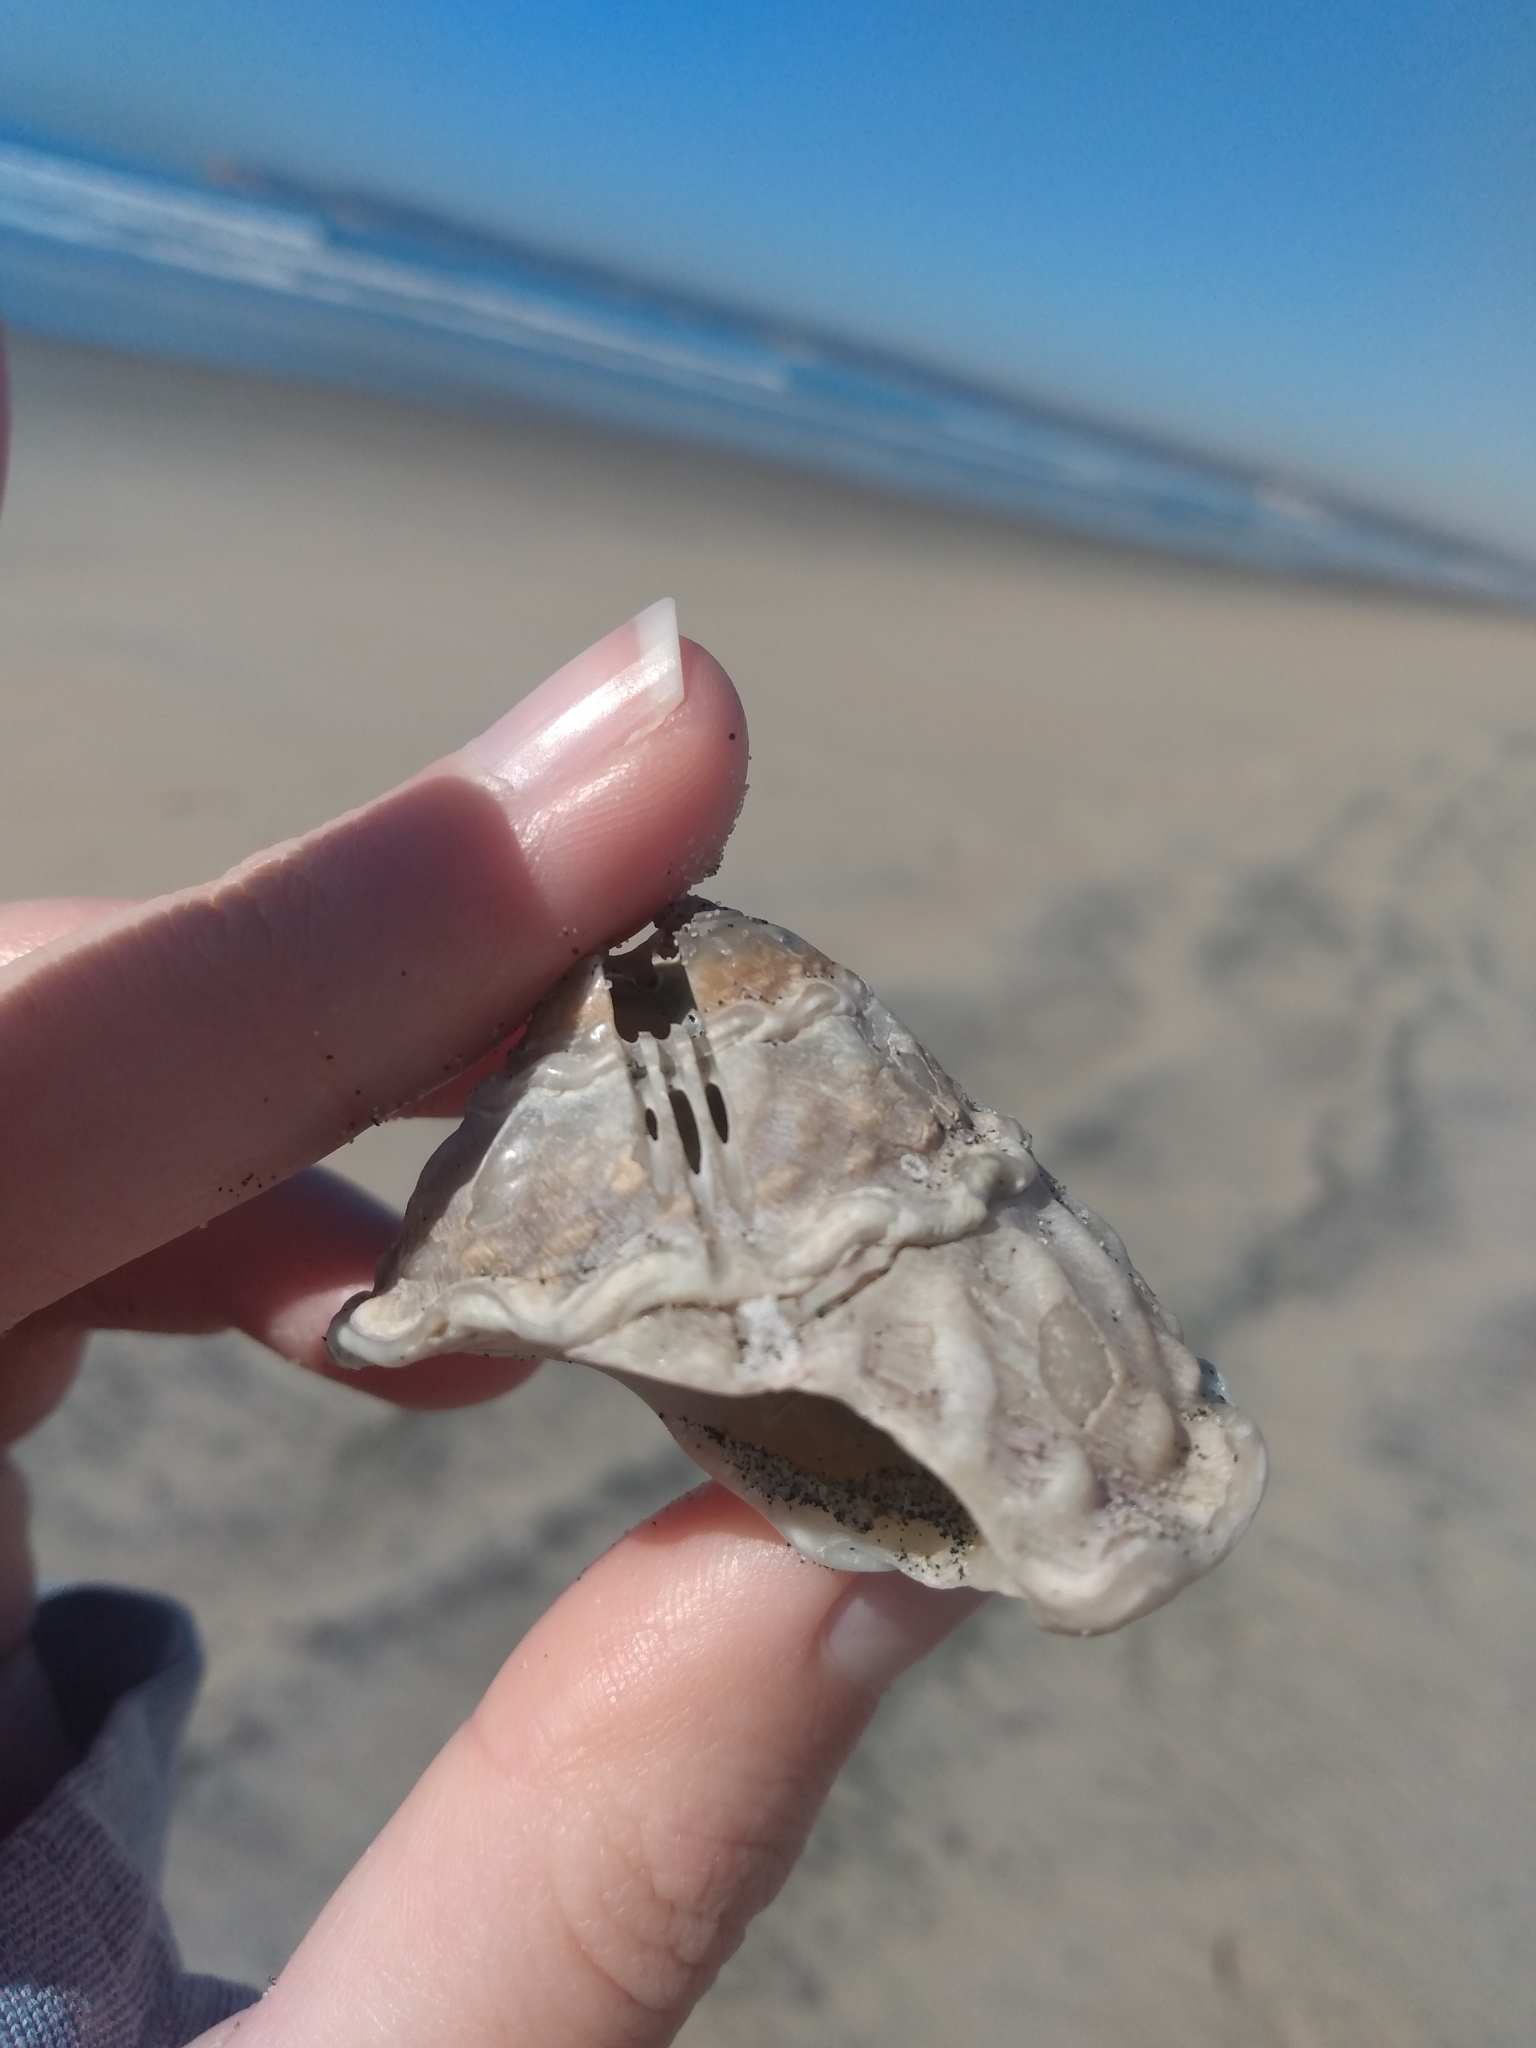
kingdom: Animalia
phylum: Mollusca
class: Gastropoda
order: Trochida
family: Turbinidae
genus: Megastraea
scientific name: Megastraea undosa
